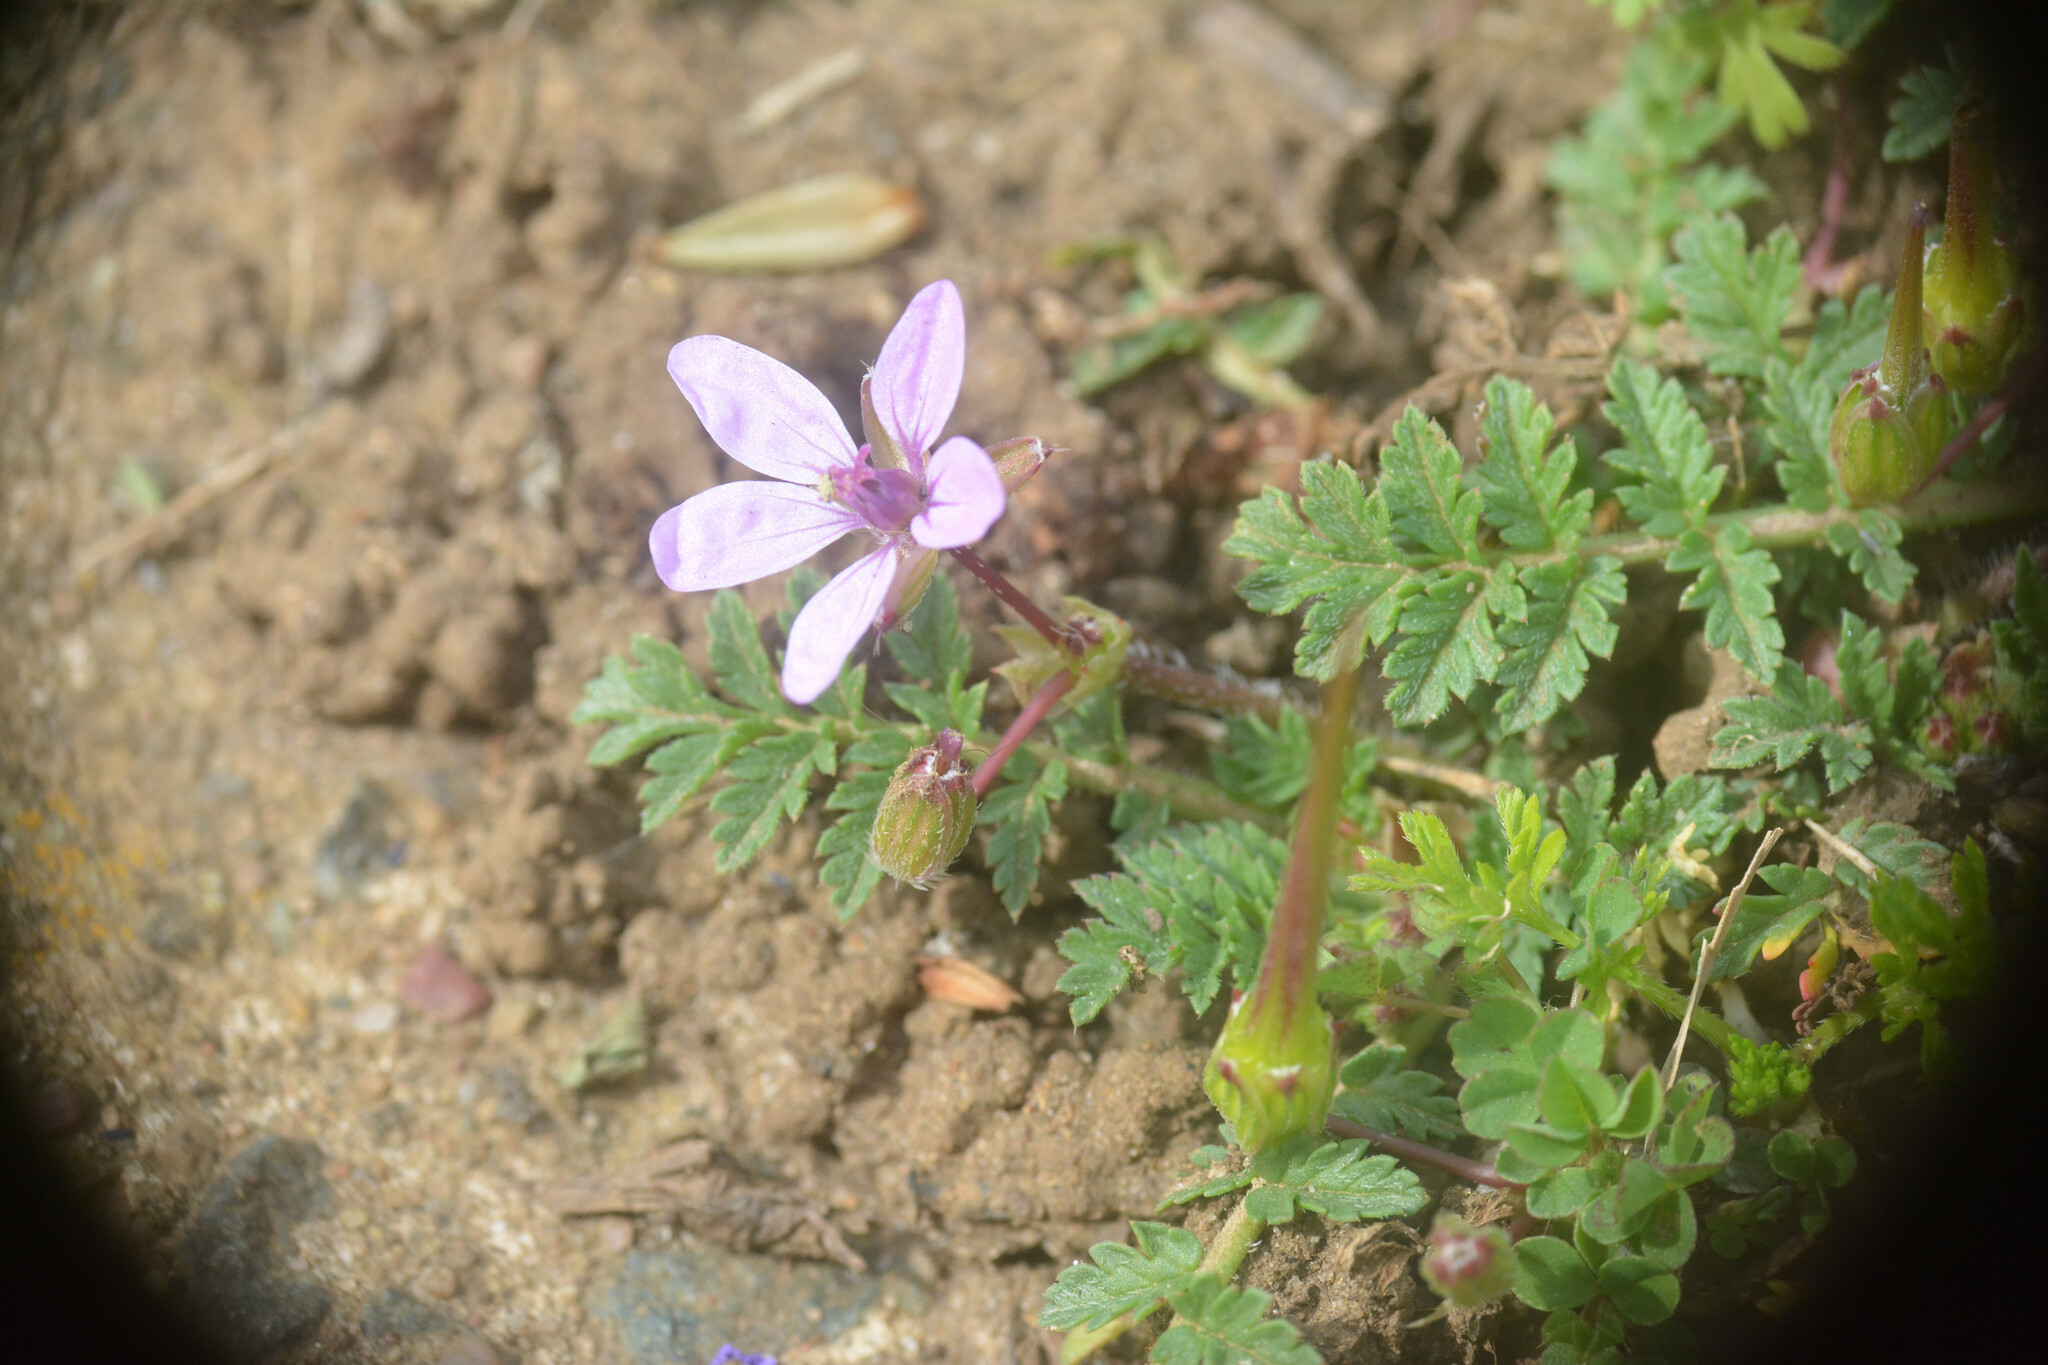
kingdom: Plantae
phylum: Tracheophyta
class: Magnoliopsida
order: Geraniales
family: Geraniaceae
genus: Erodium
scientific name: Erodium cicutarium
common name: Common stork's-bill
